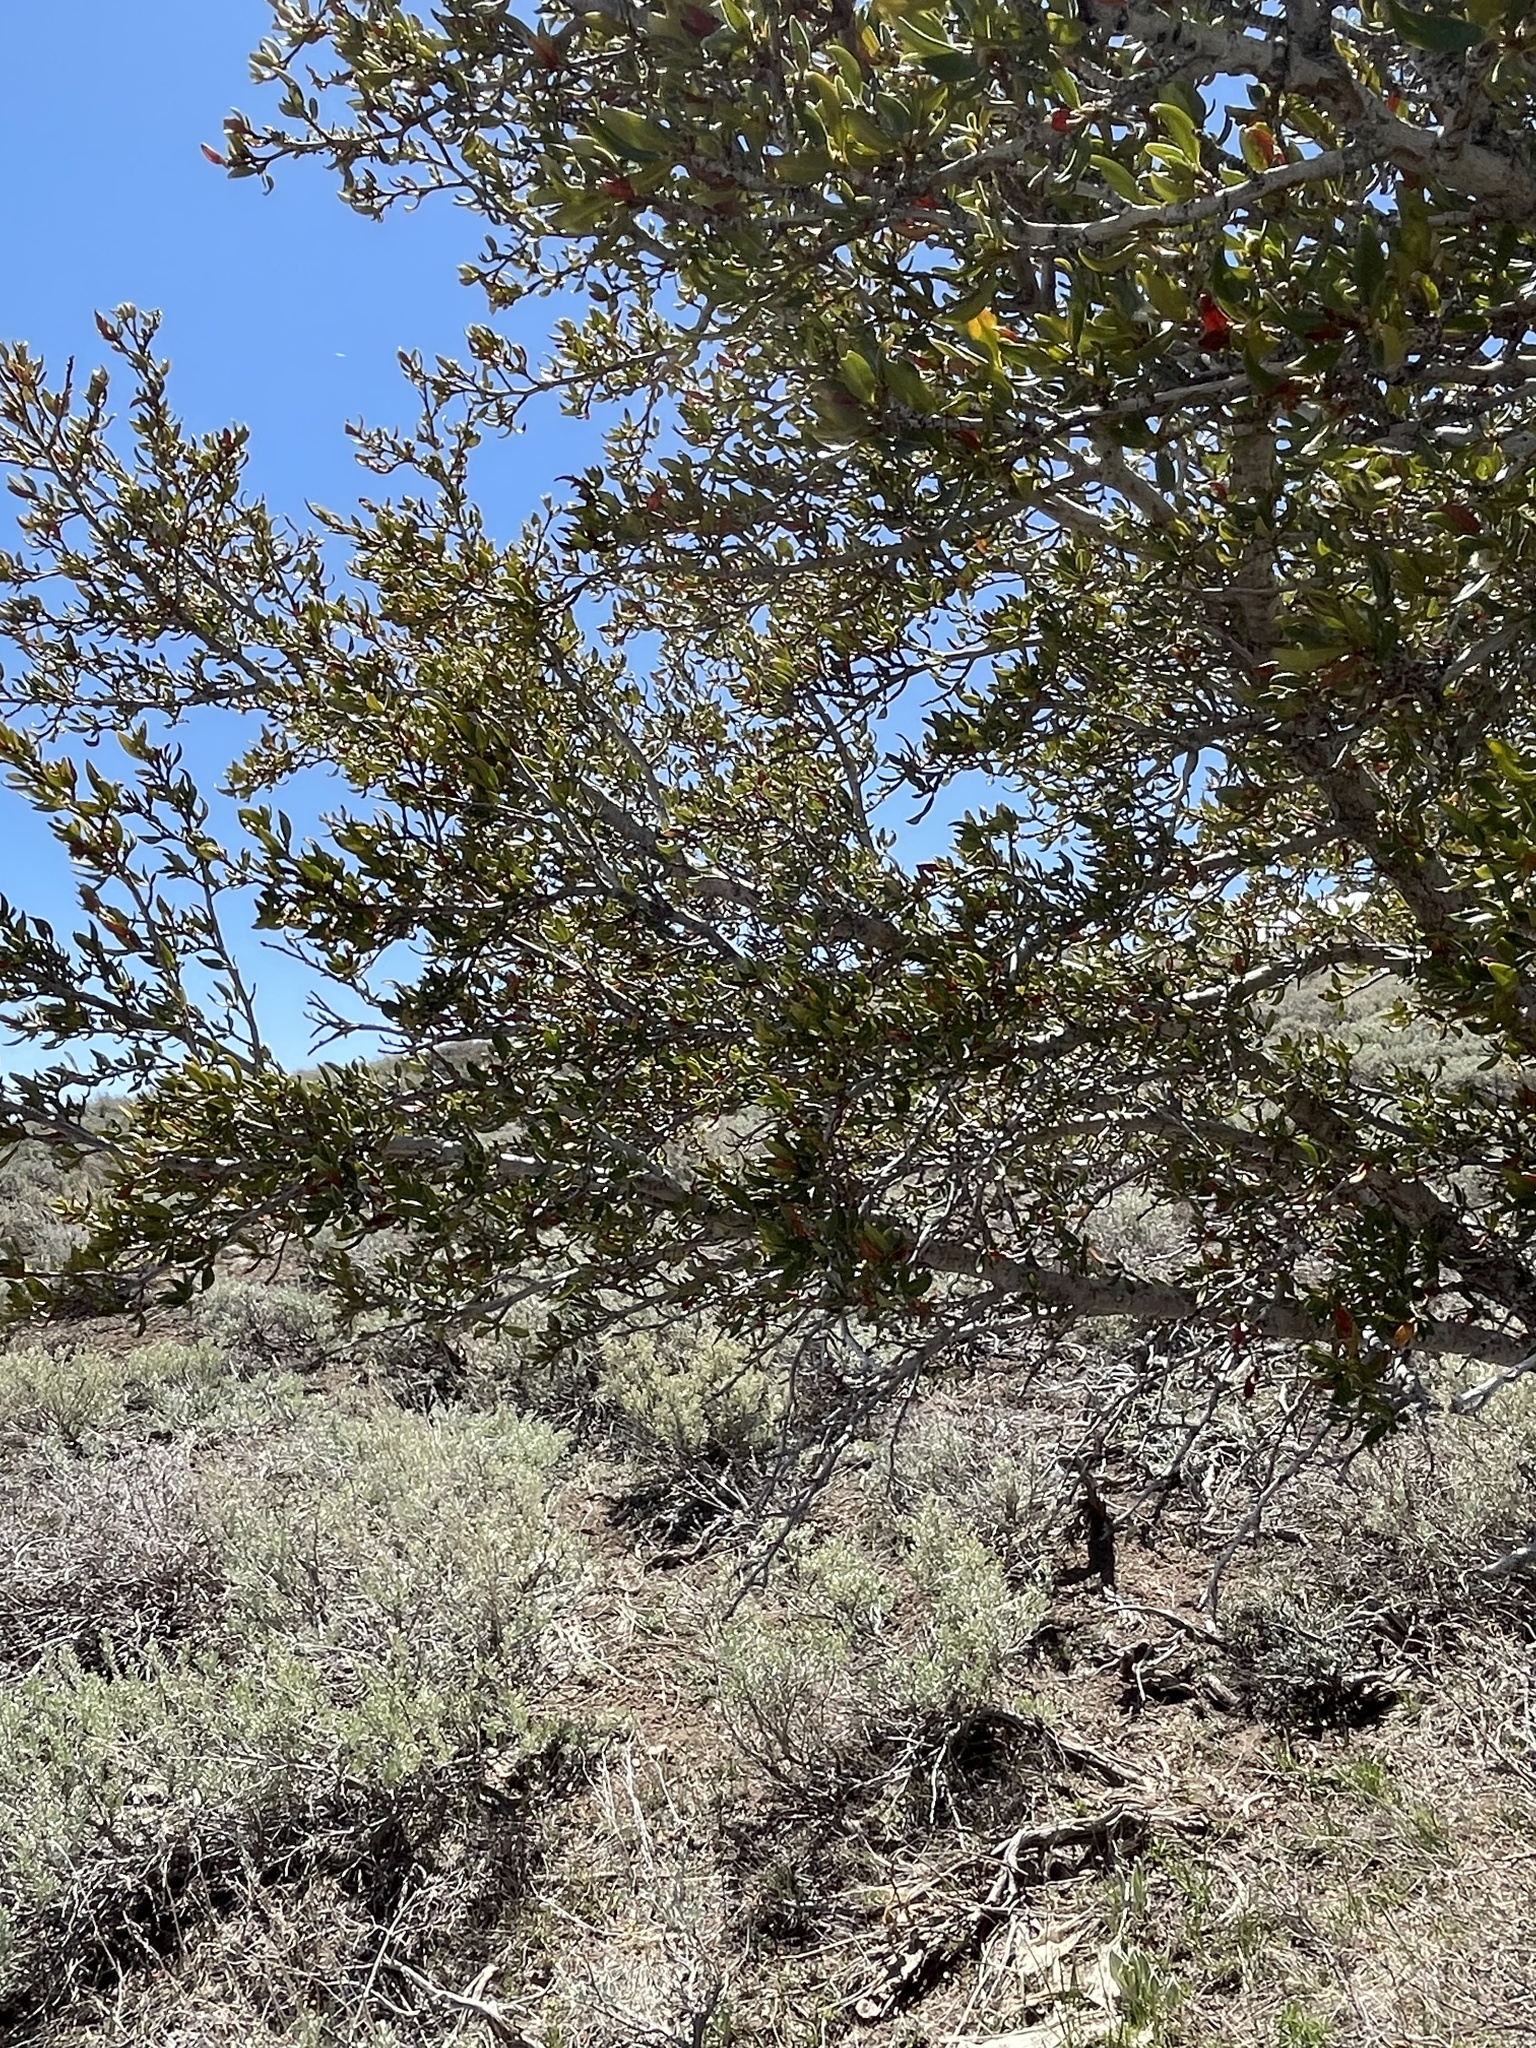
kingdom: Plantae
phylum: Tracheophyta
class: Magnoliopsida
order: Rosales
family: Rosaceae
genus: Cercocarpus
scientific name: Cercocarpus ledifolius
